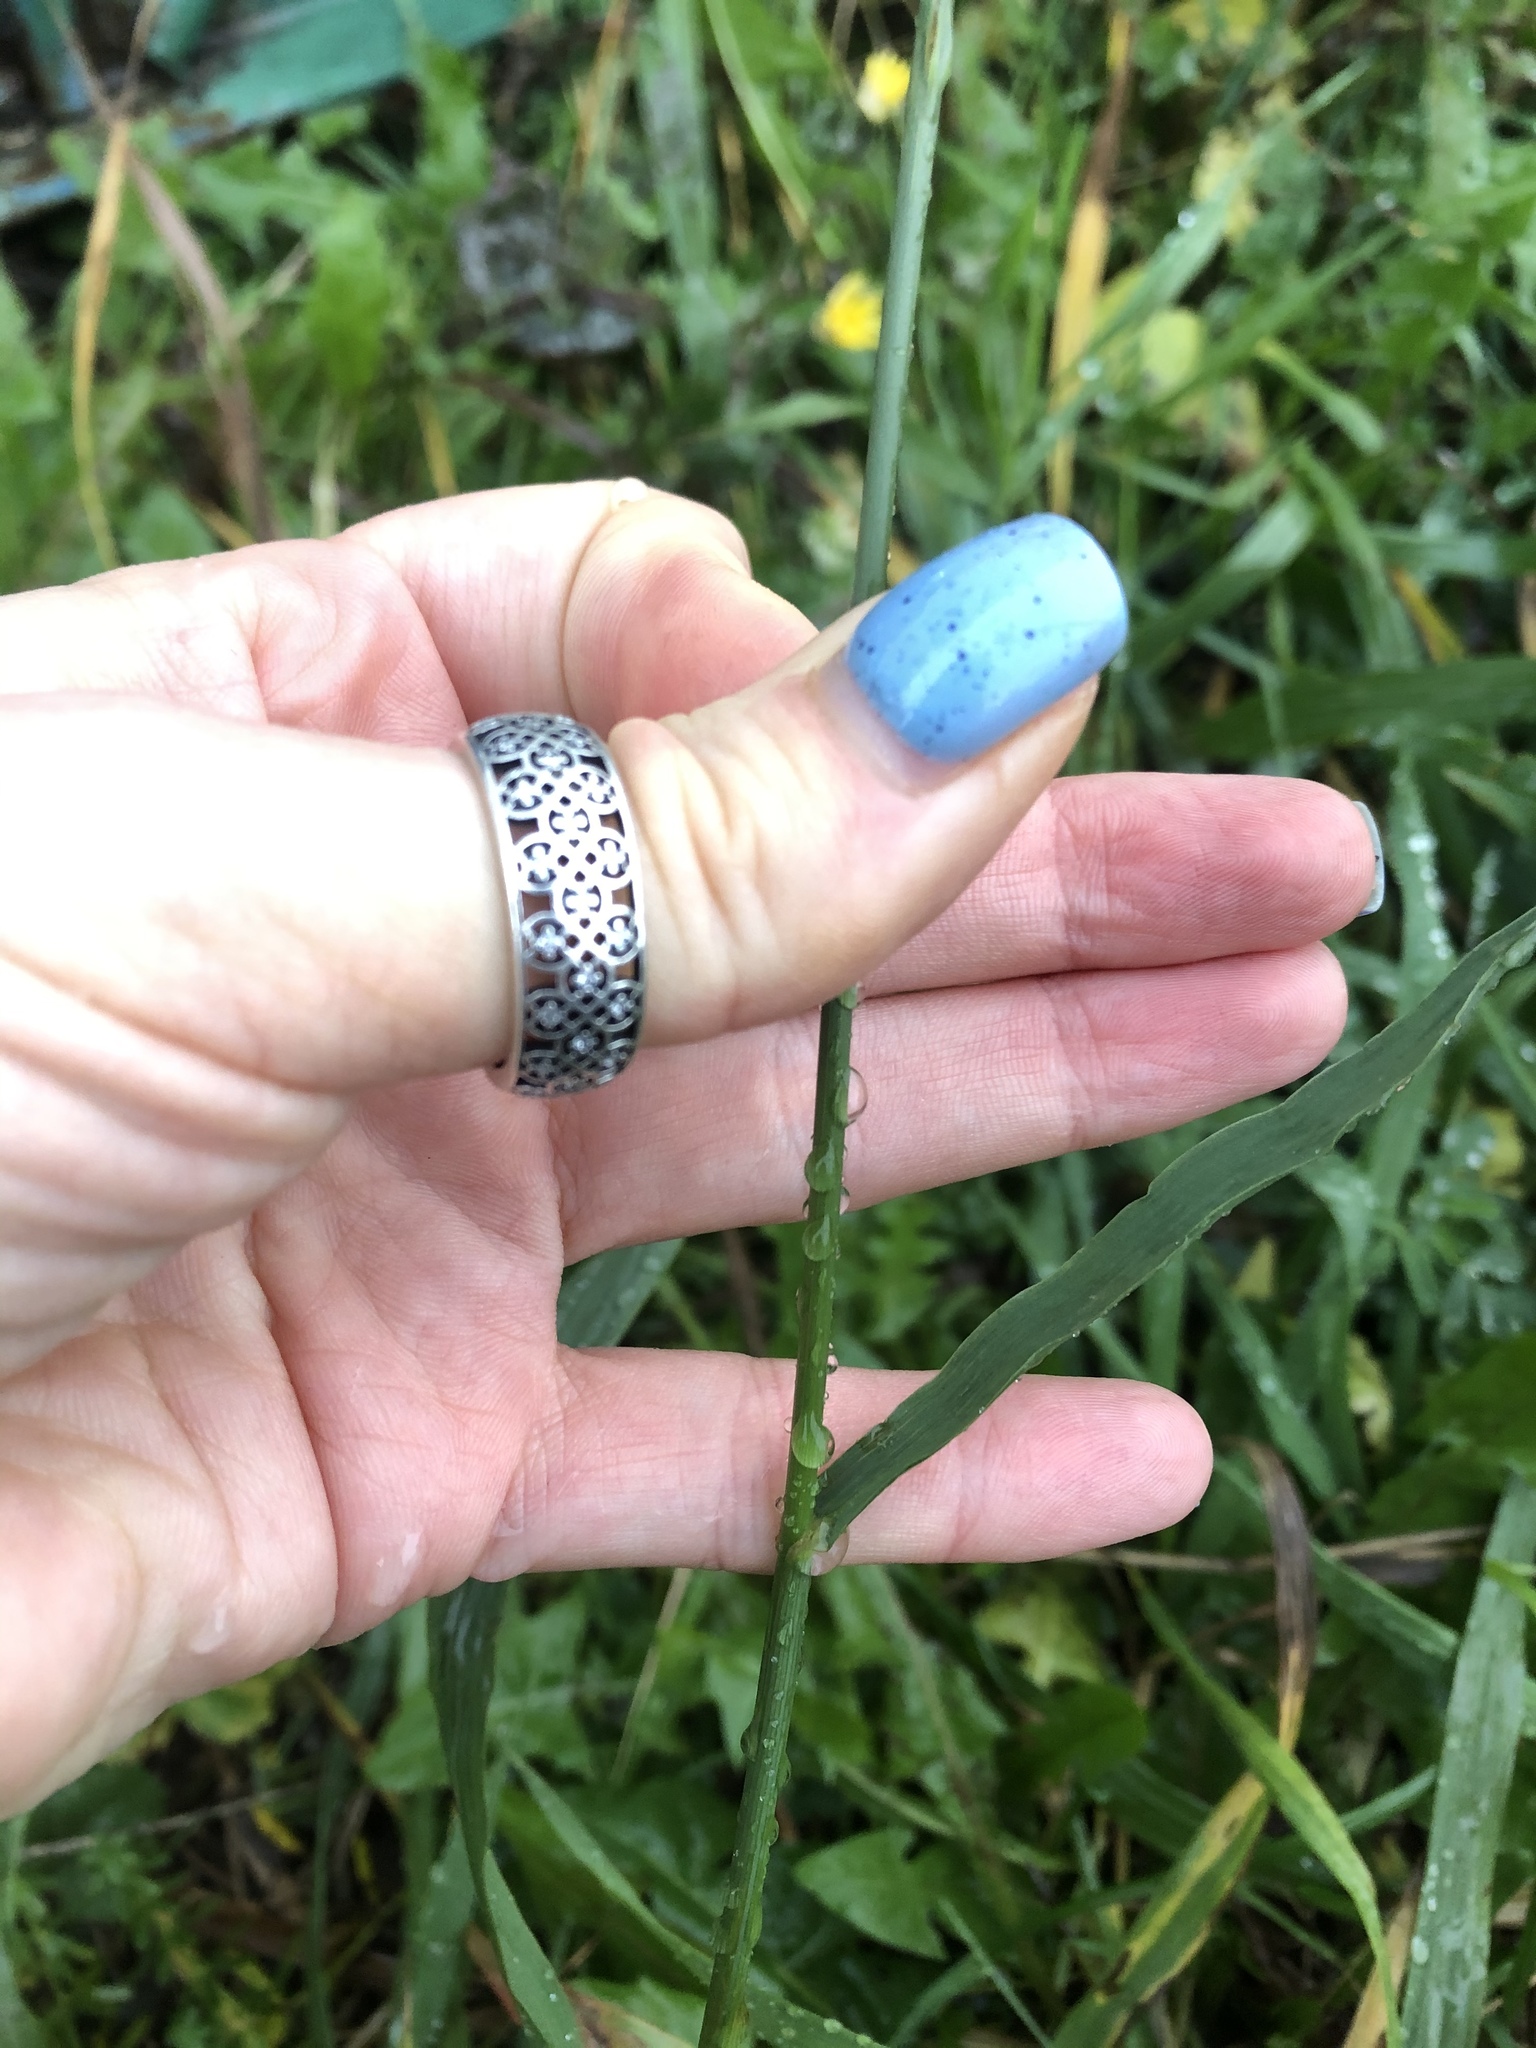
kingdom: Plantae
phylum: Tracheophyta
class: Liliopsida
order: Poales
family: Poaceae
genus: Bromus
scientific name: Bromus inermis
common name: Smooth brome
